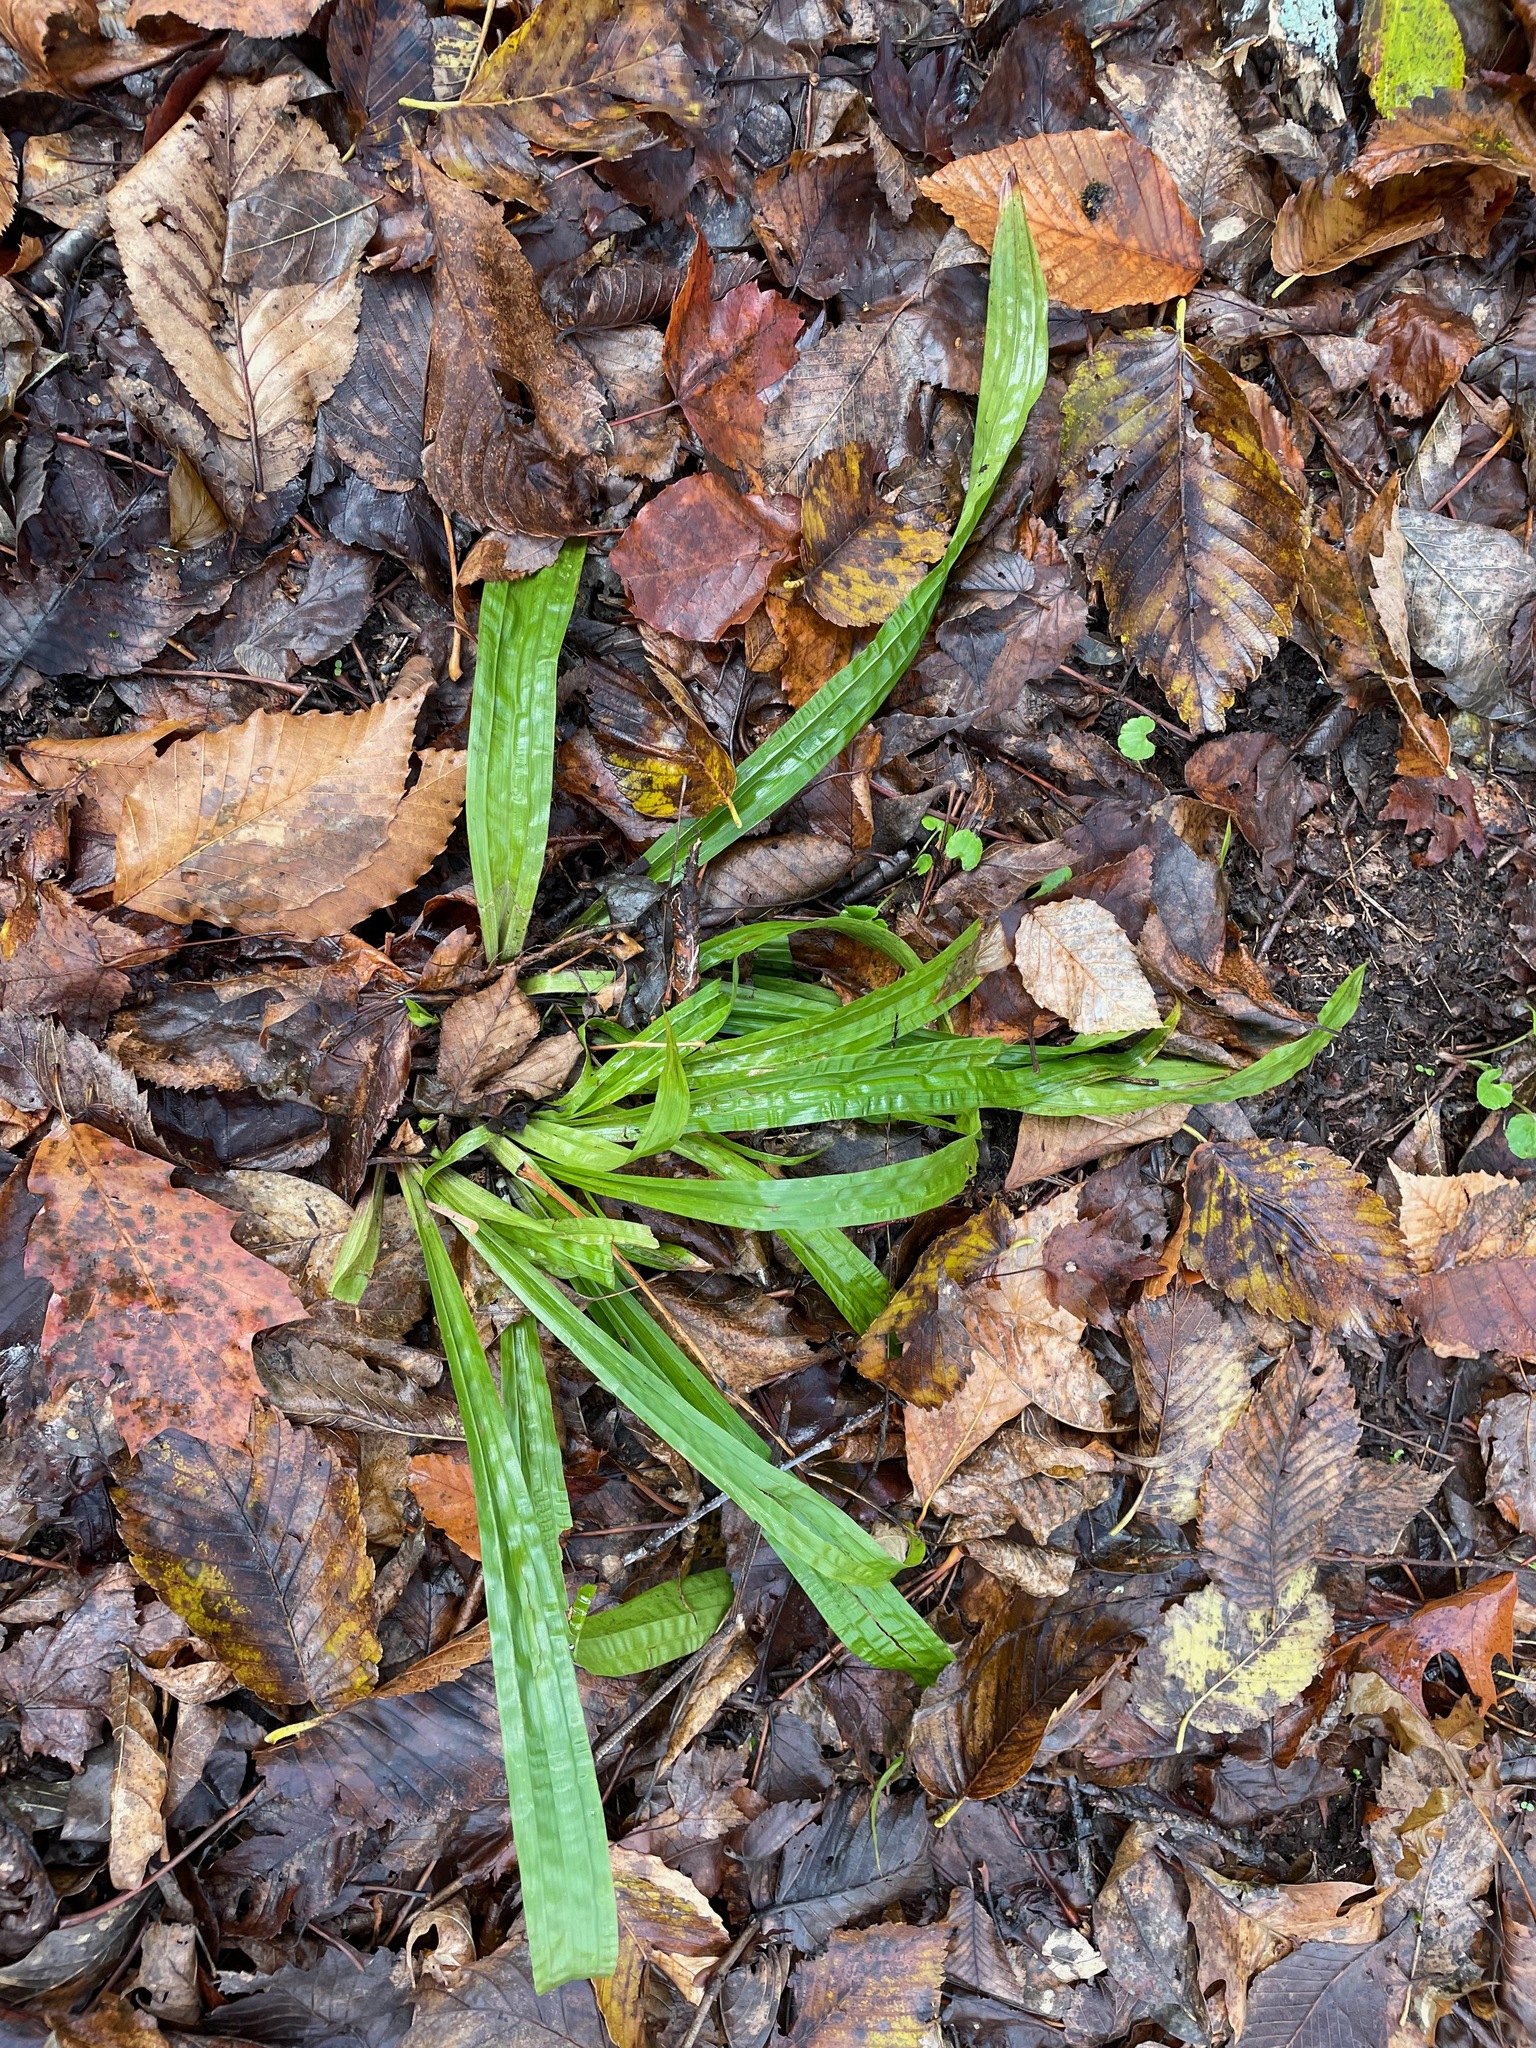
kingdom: Plantae
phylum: Tracheophyta
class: Liliopsida
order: Poales
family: Cyperaceae
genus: Carex
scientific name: Carex plantaginea
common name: Plantain-leaved sedge
